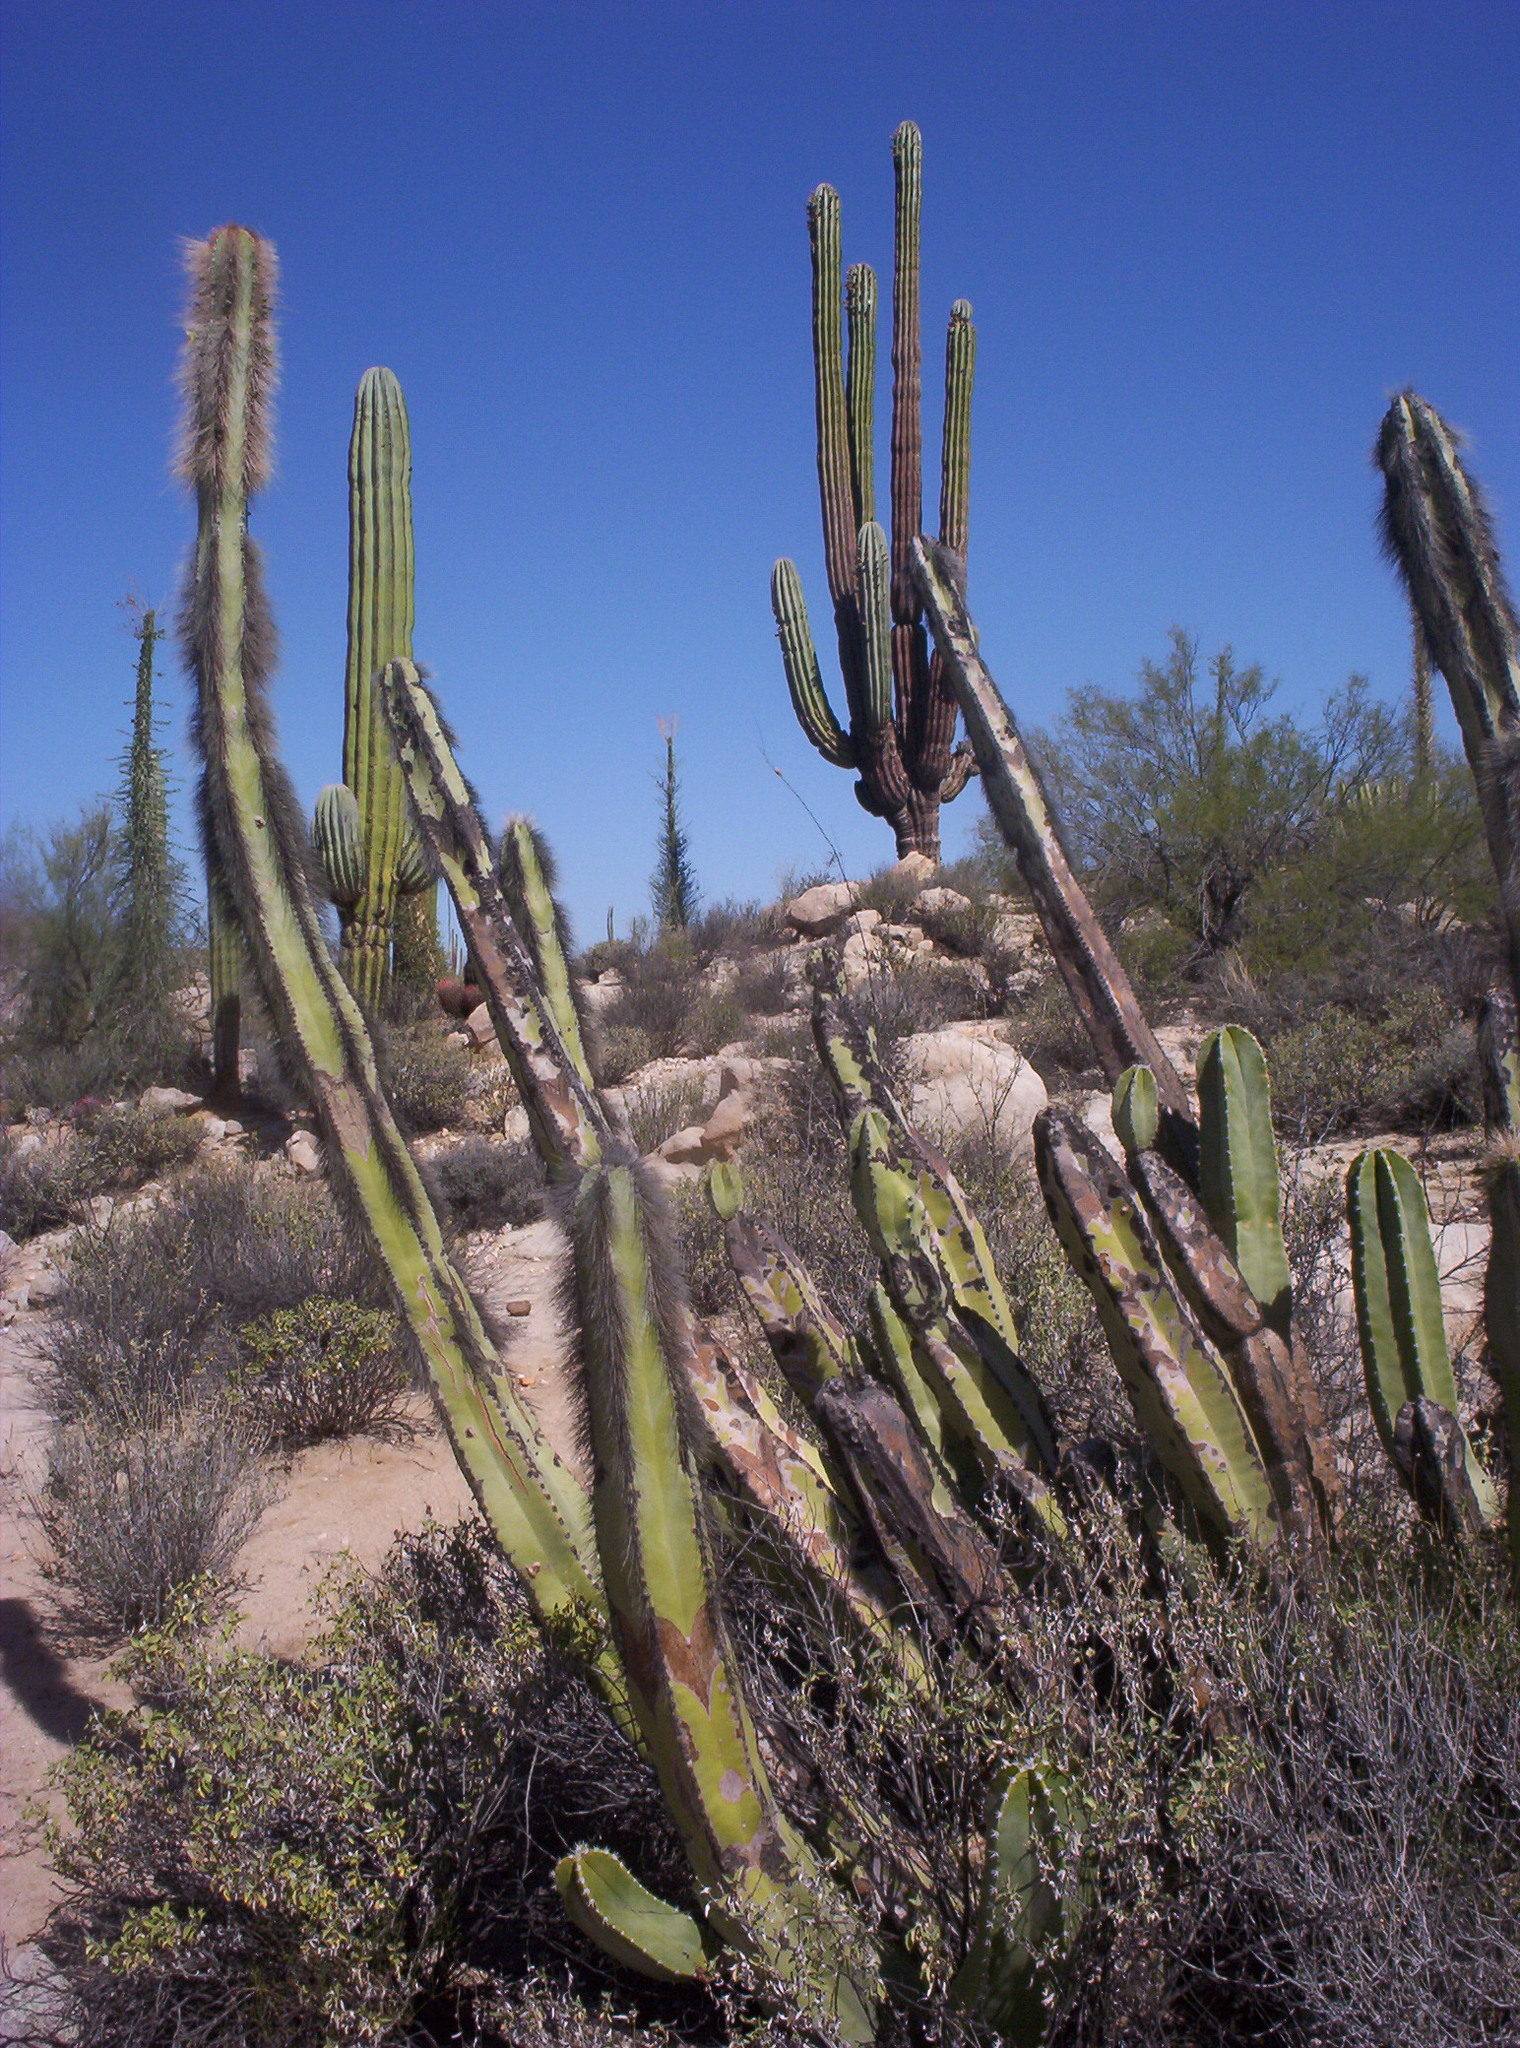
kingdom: Plantae
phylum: Tracheophyta
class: Magnoliopsida
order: Caryophyllales
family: Cactaceae
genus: Pachycereus
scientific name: Pachycereus schottii
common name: Senita cactus
